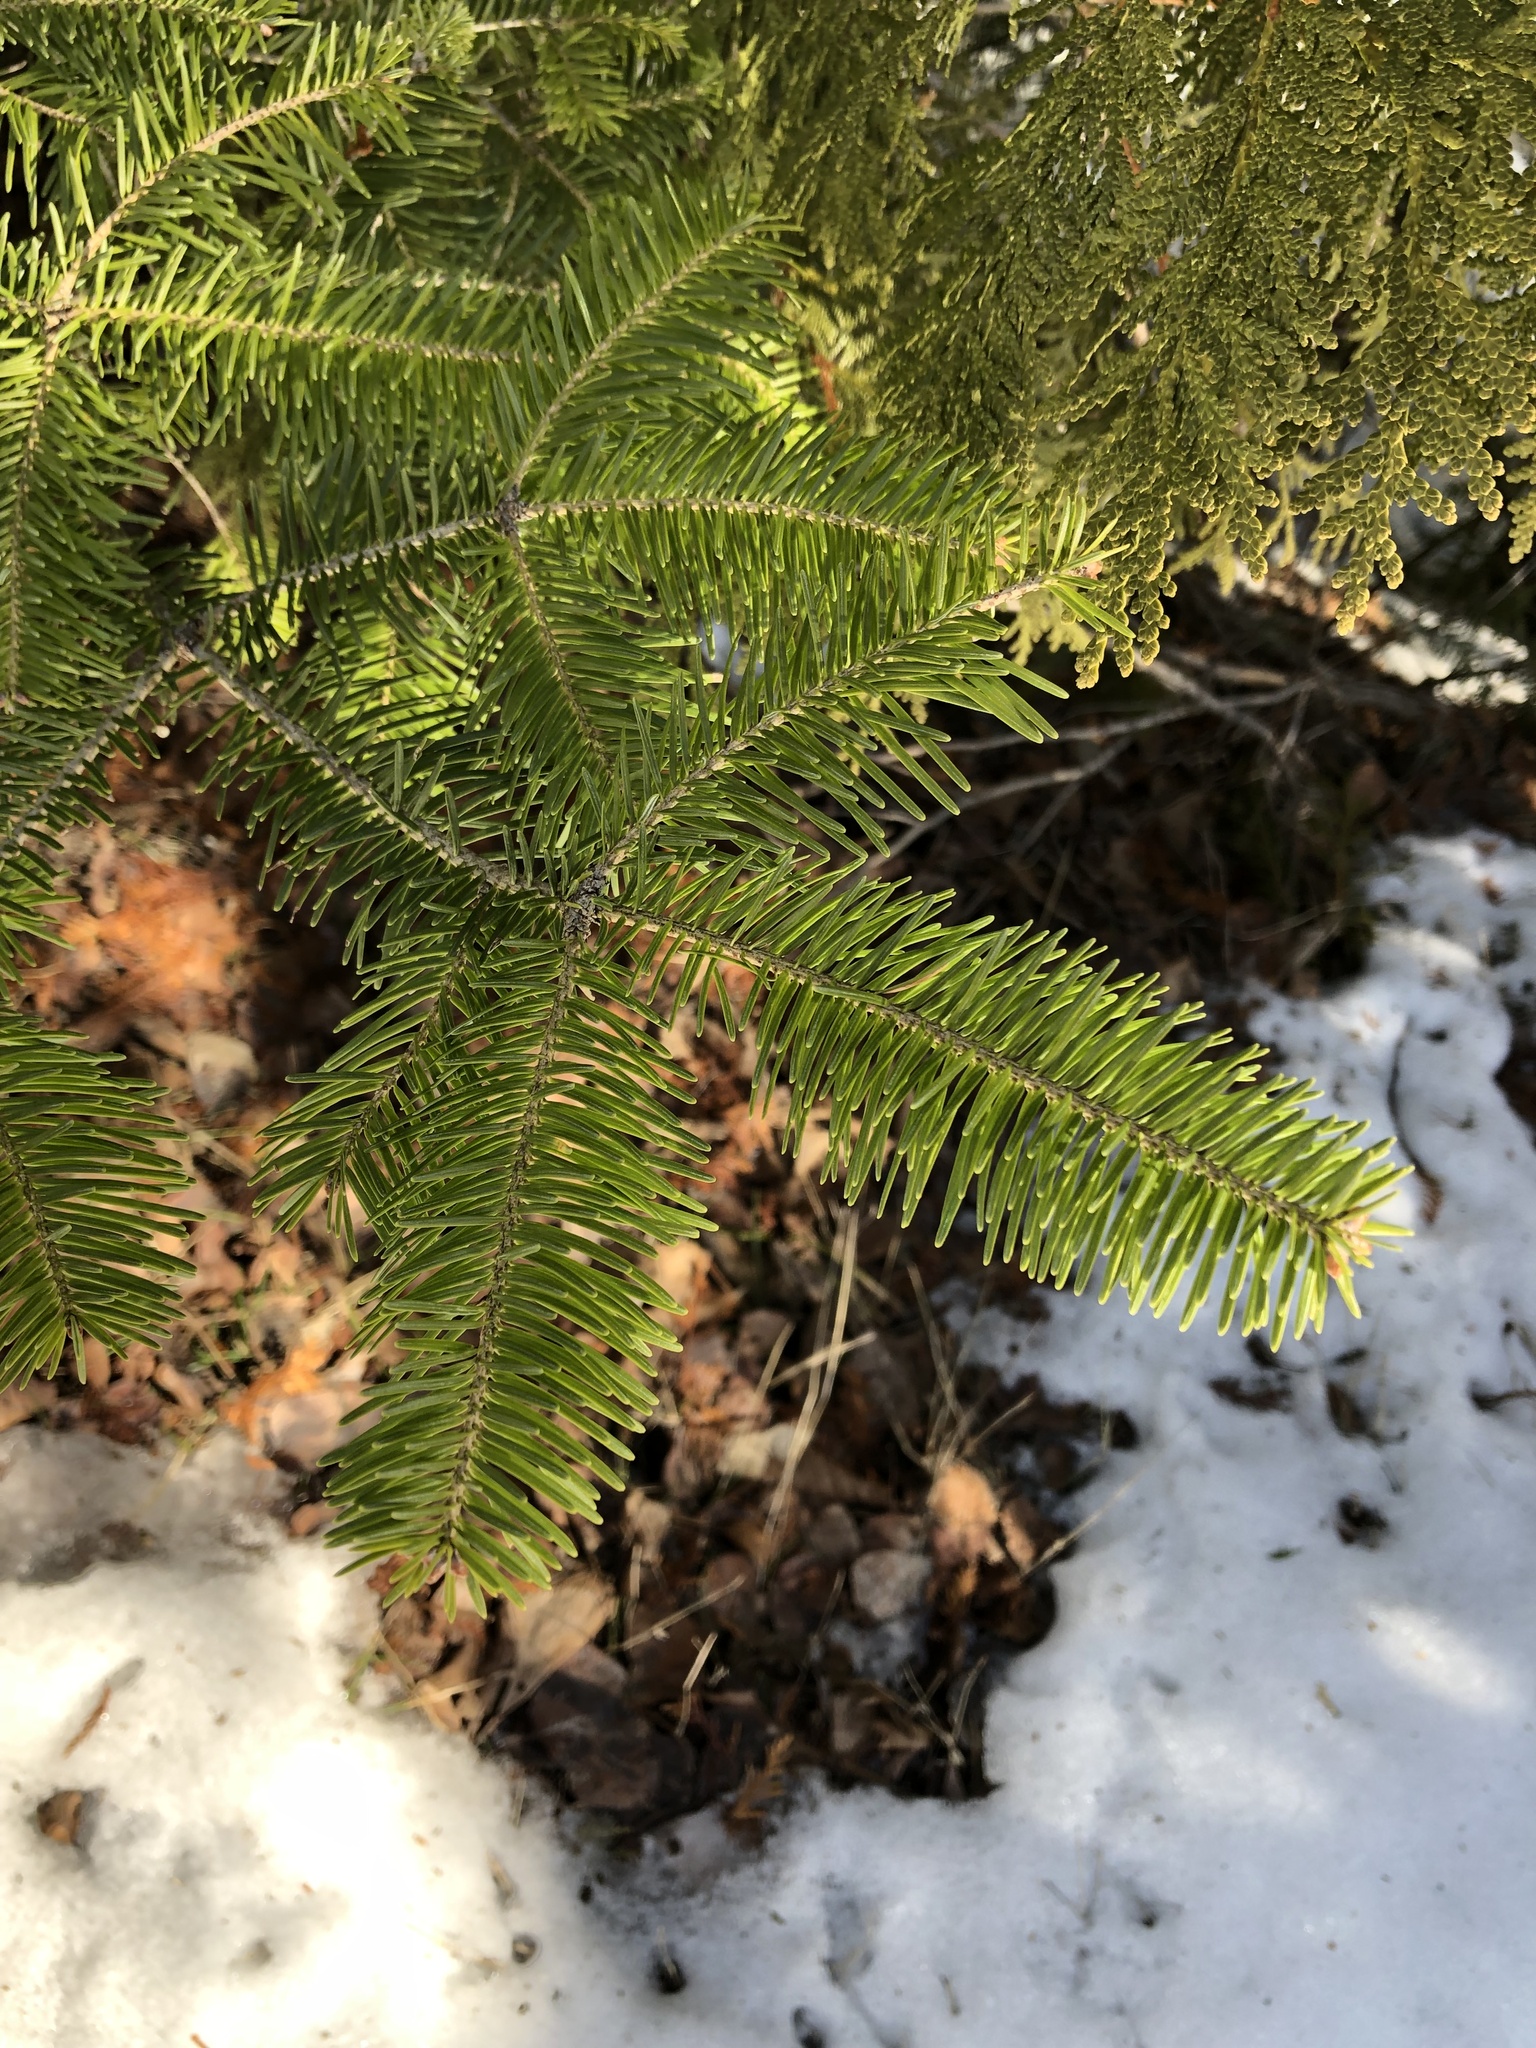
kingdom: Plantae
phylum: Tracheophyta
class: Pinopsida
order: Pinales
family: Pinaceae
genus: Abies
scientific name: Abies balsamea
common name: Balsam fir
